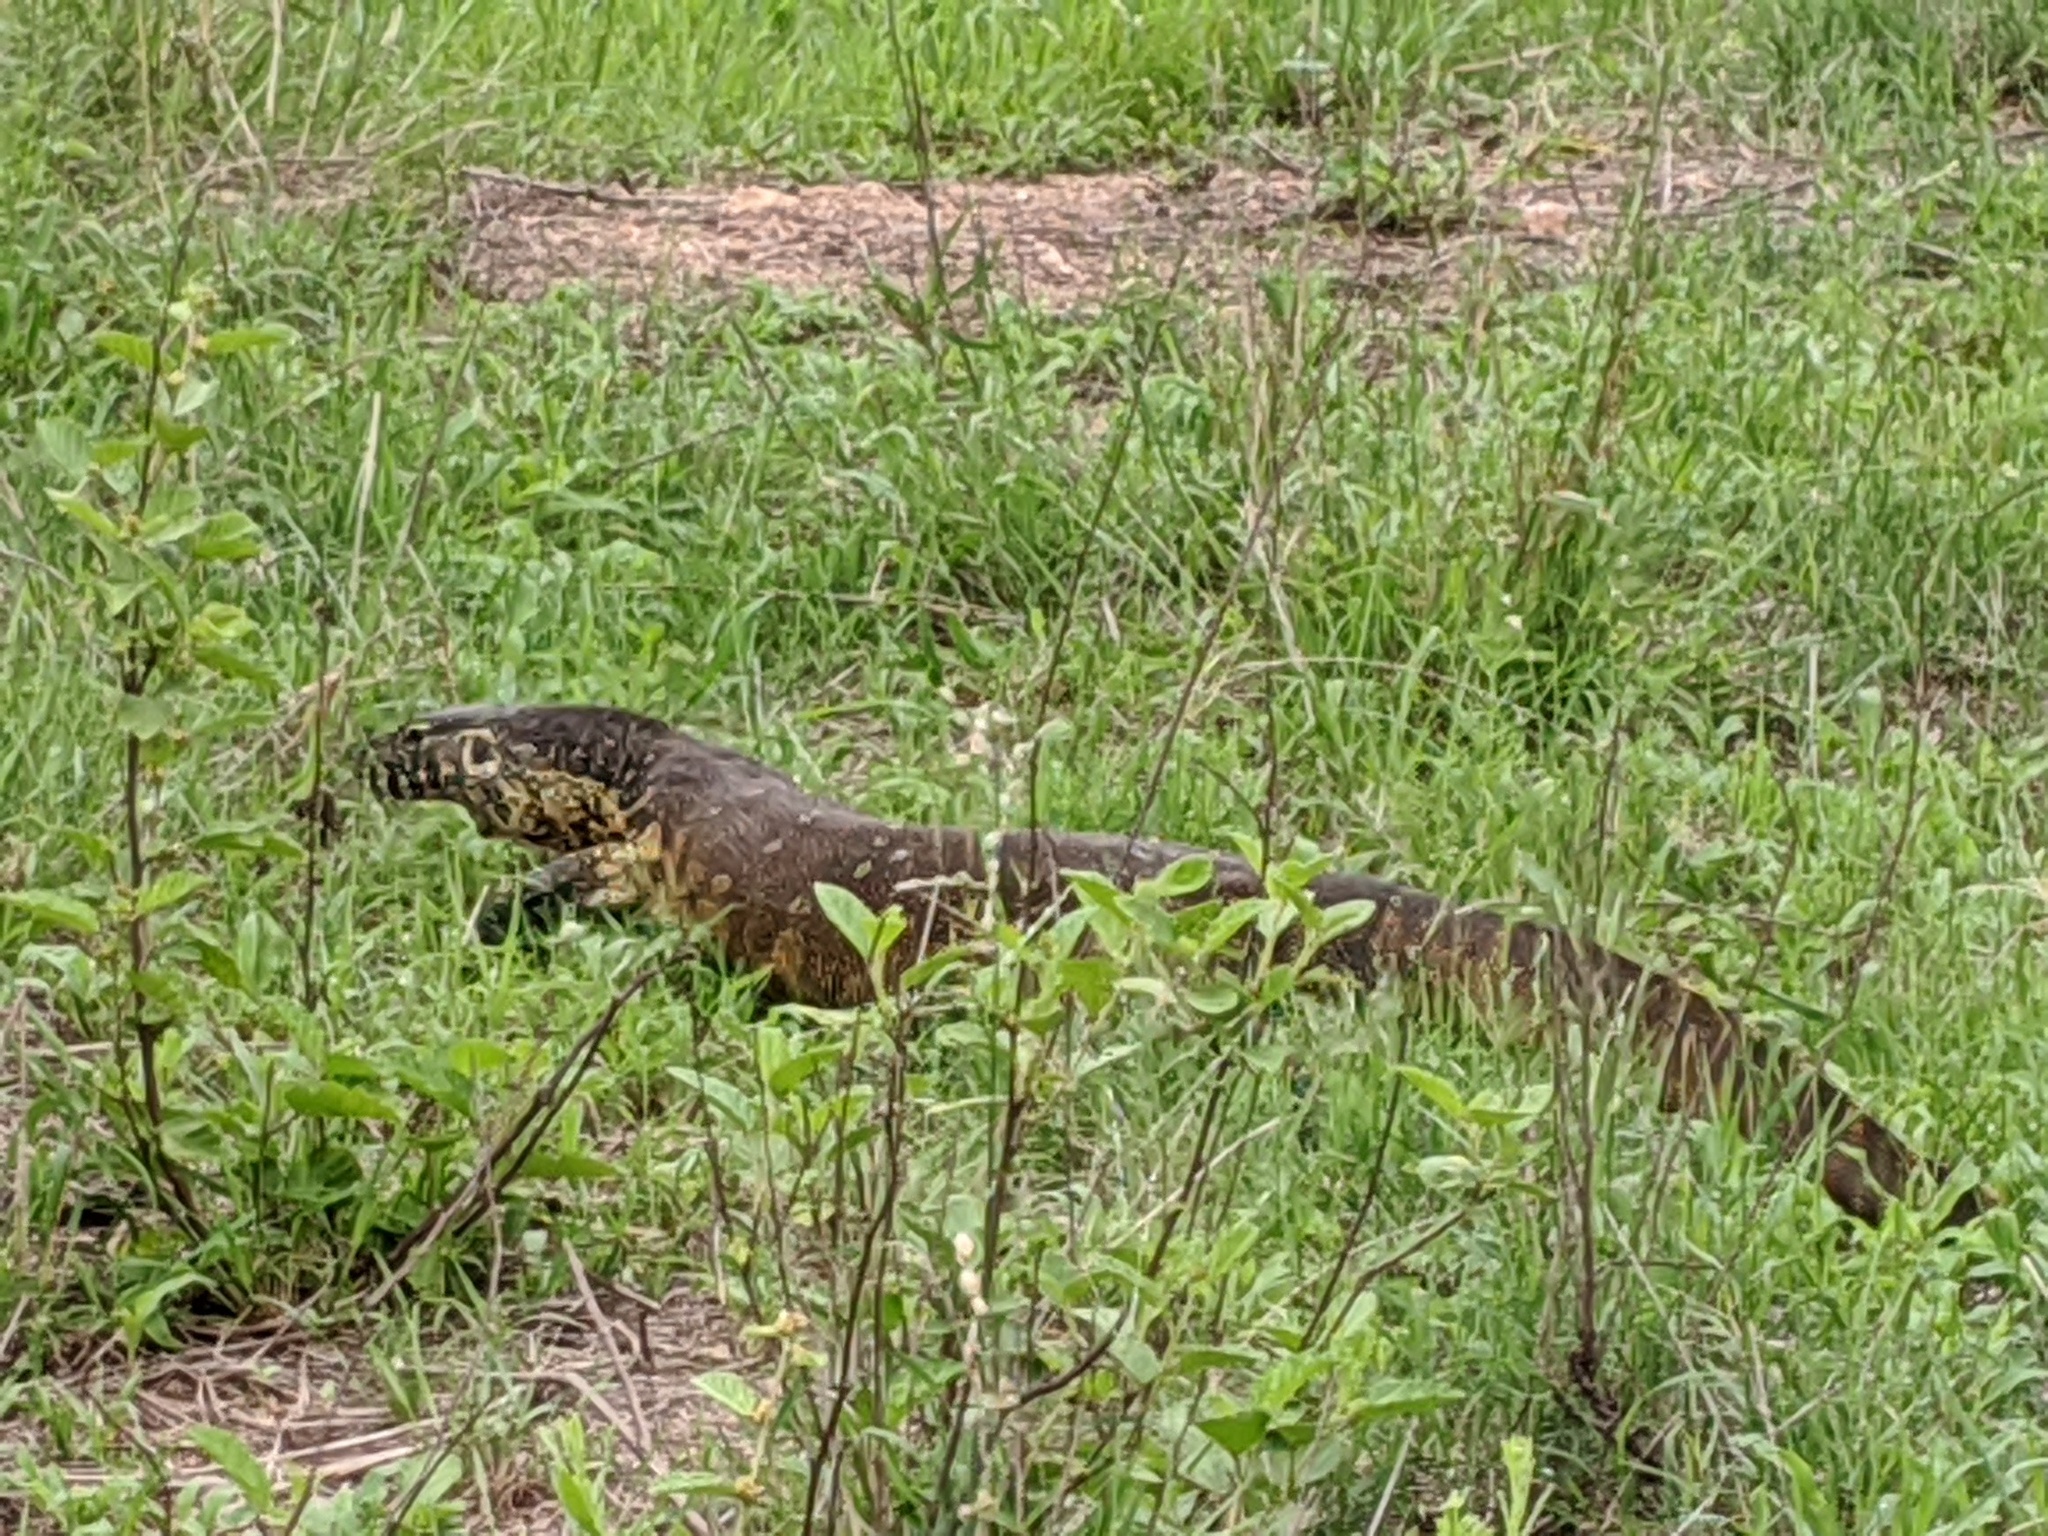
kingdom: Animalia
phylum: Chordata
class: Squamata
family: Varanidae
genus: Varanus
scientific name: Varanus niloticus
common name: Nile monitor
